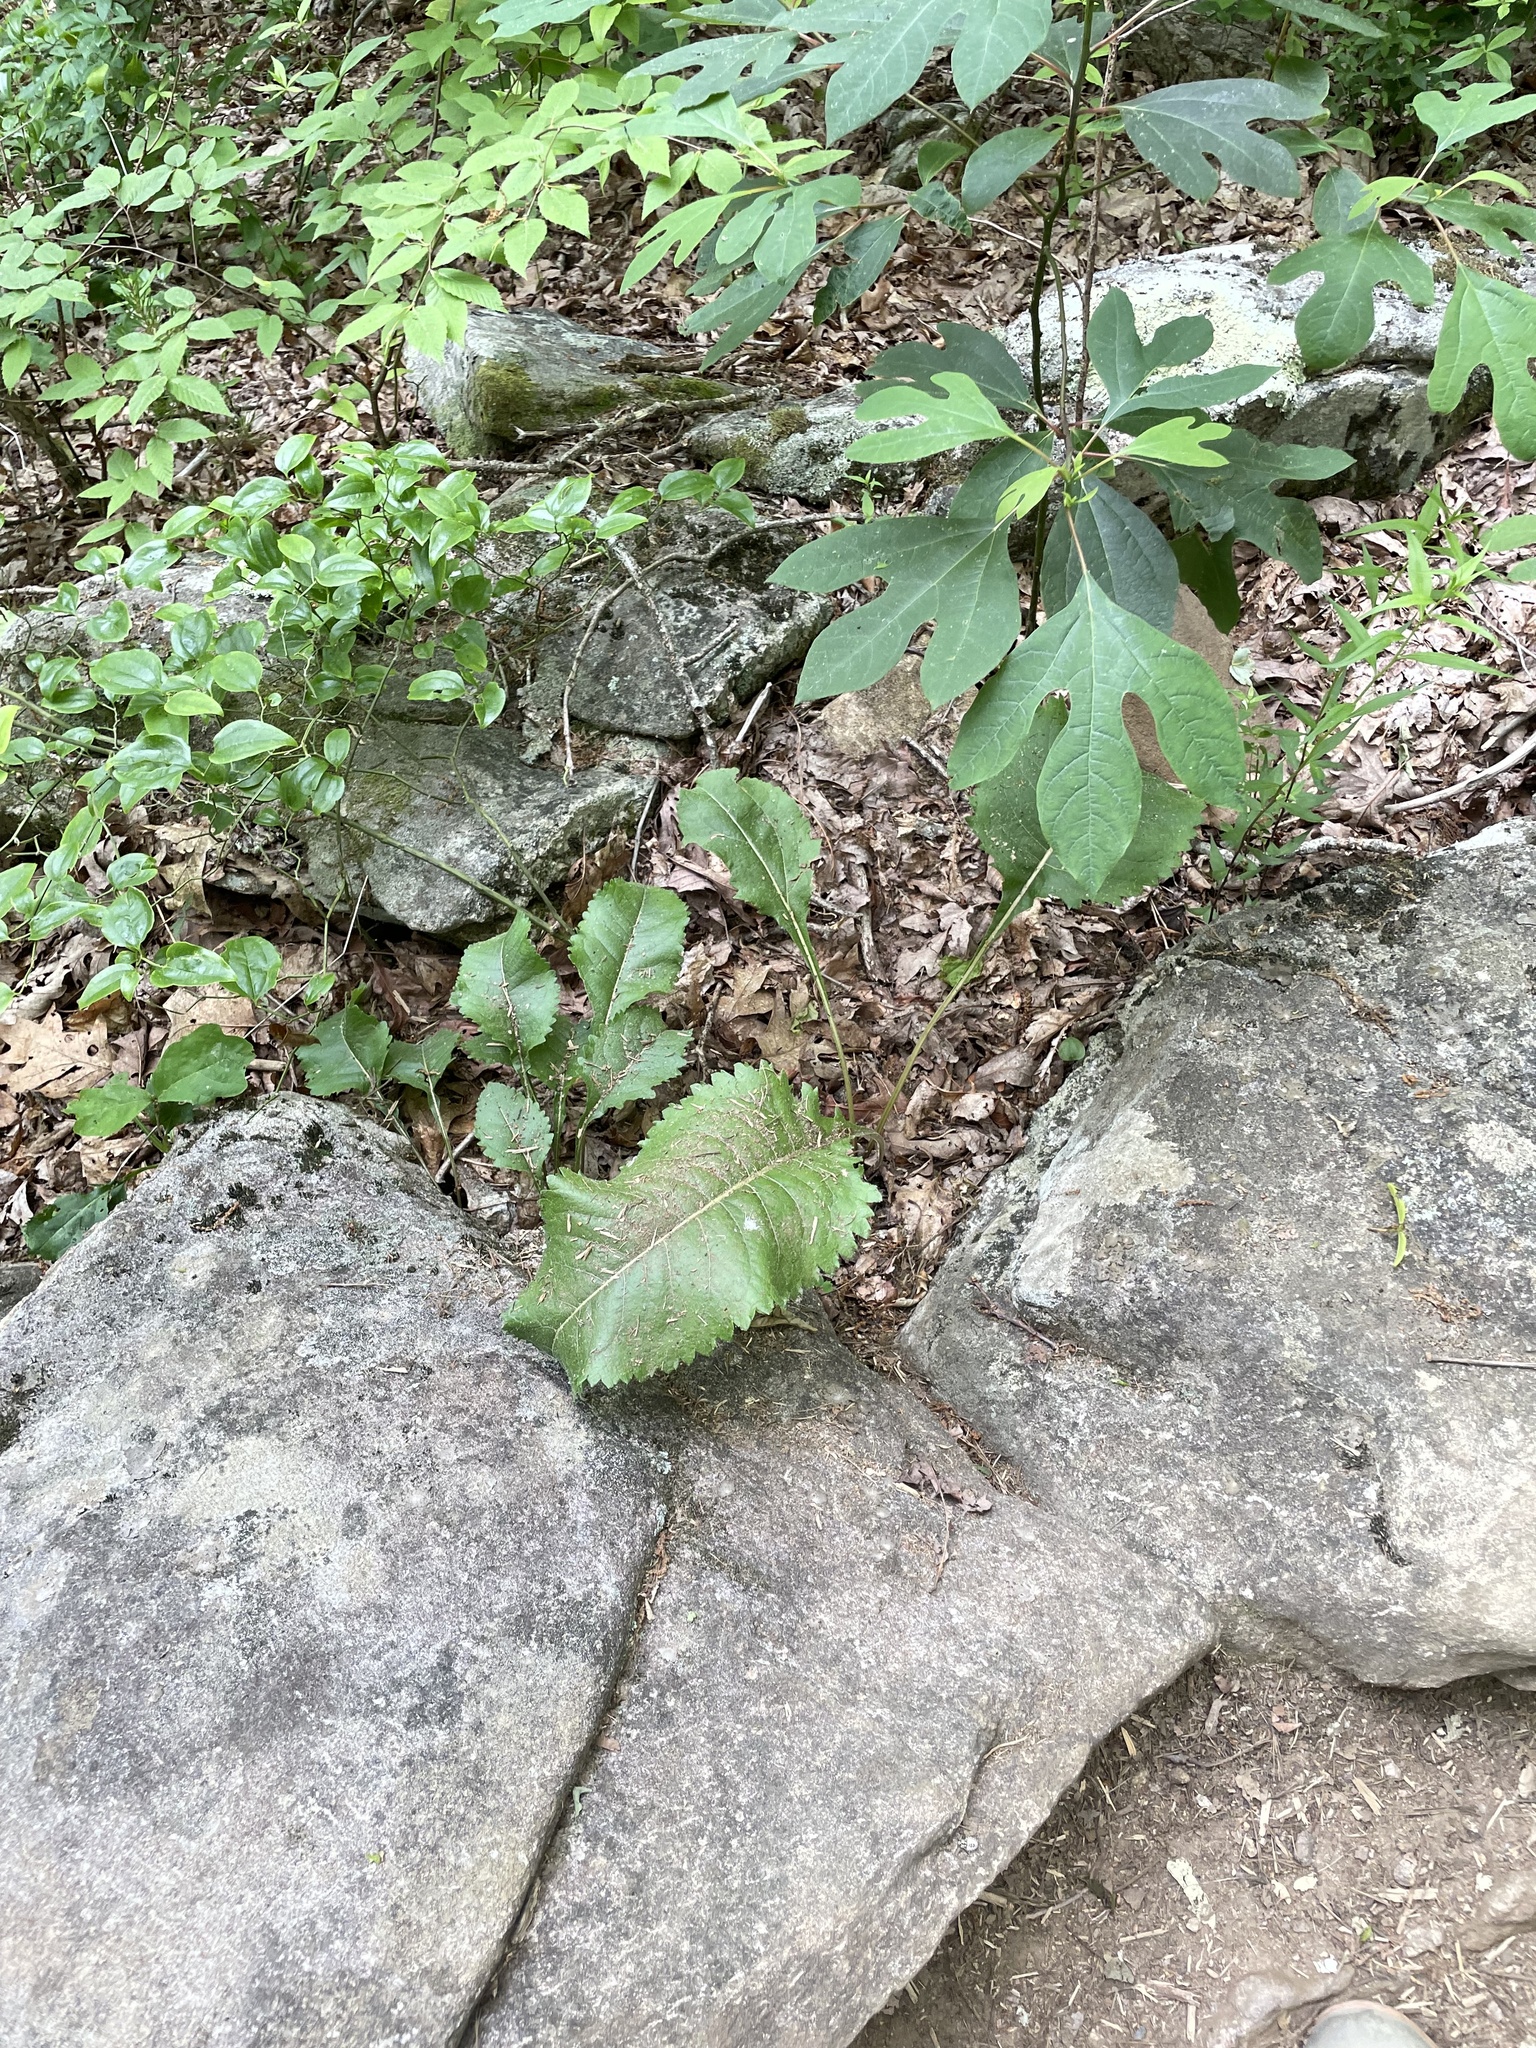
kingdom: Plantae
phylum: Tracheophyta
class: Magnoliopsida
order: Asterales
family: Asteraceae
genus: Parthenium
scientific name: Parthenium integrifolium
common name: American feverfew
